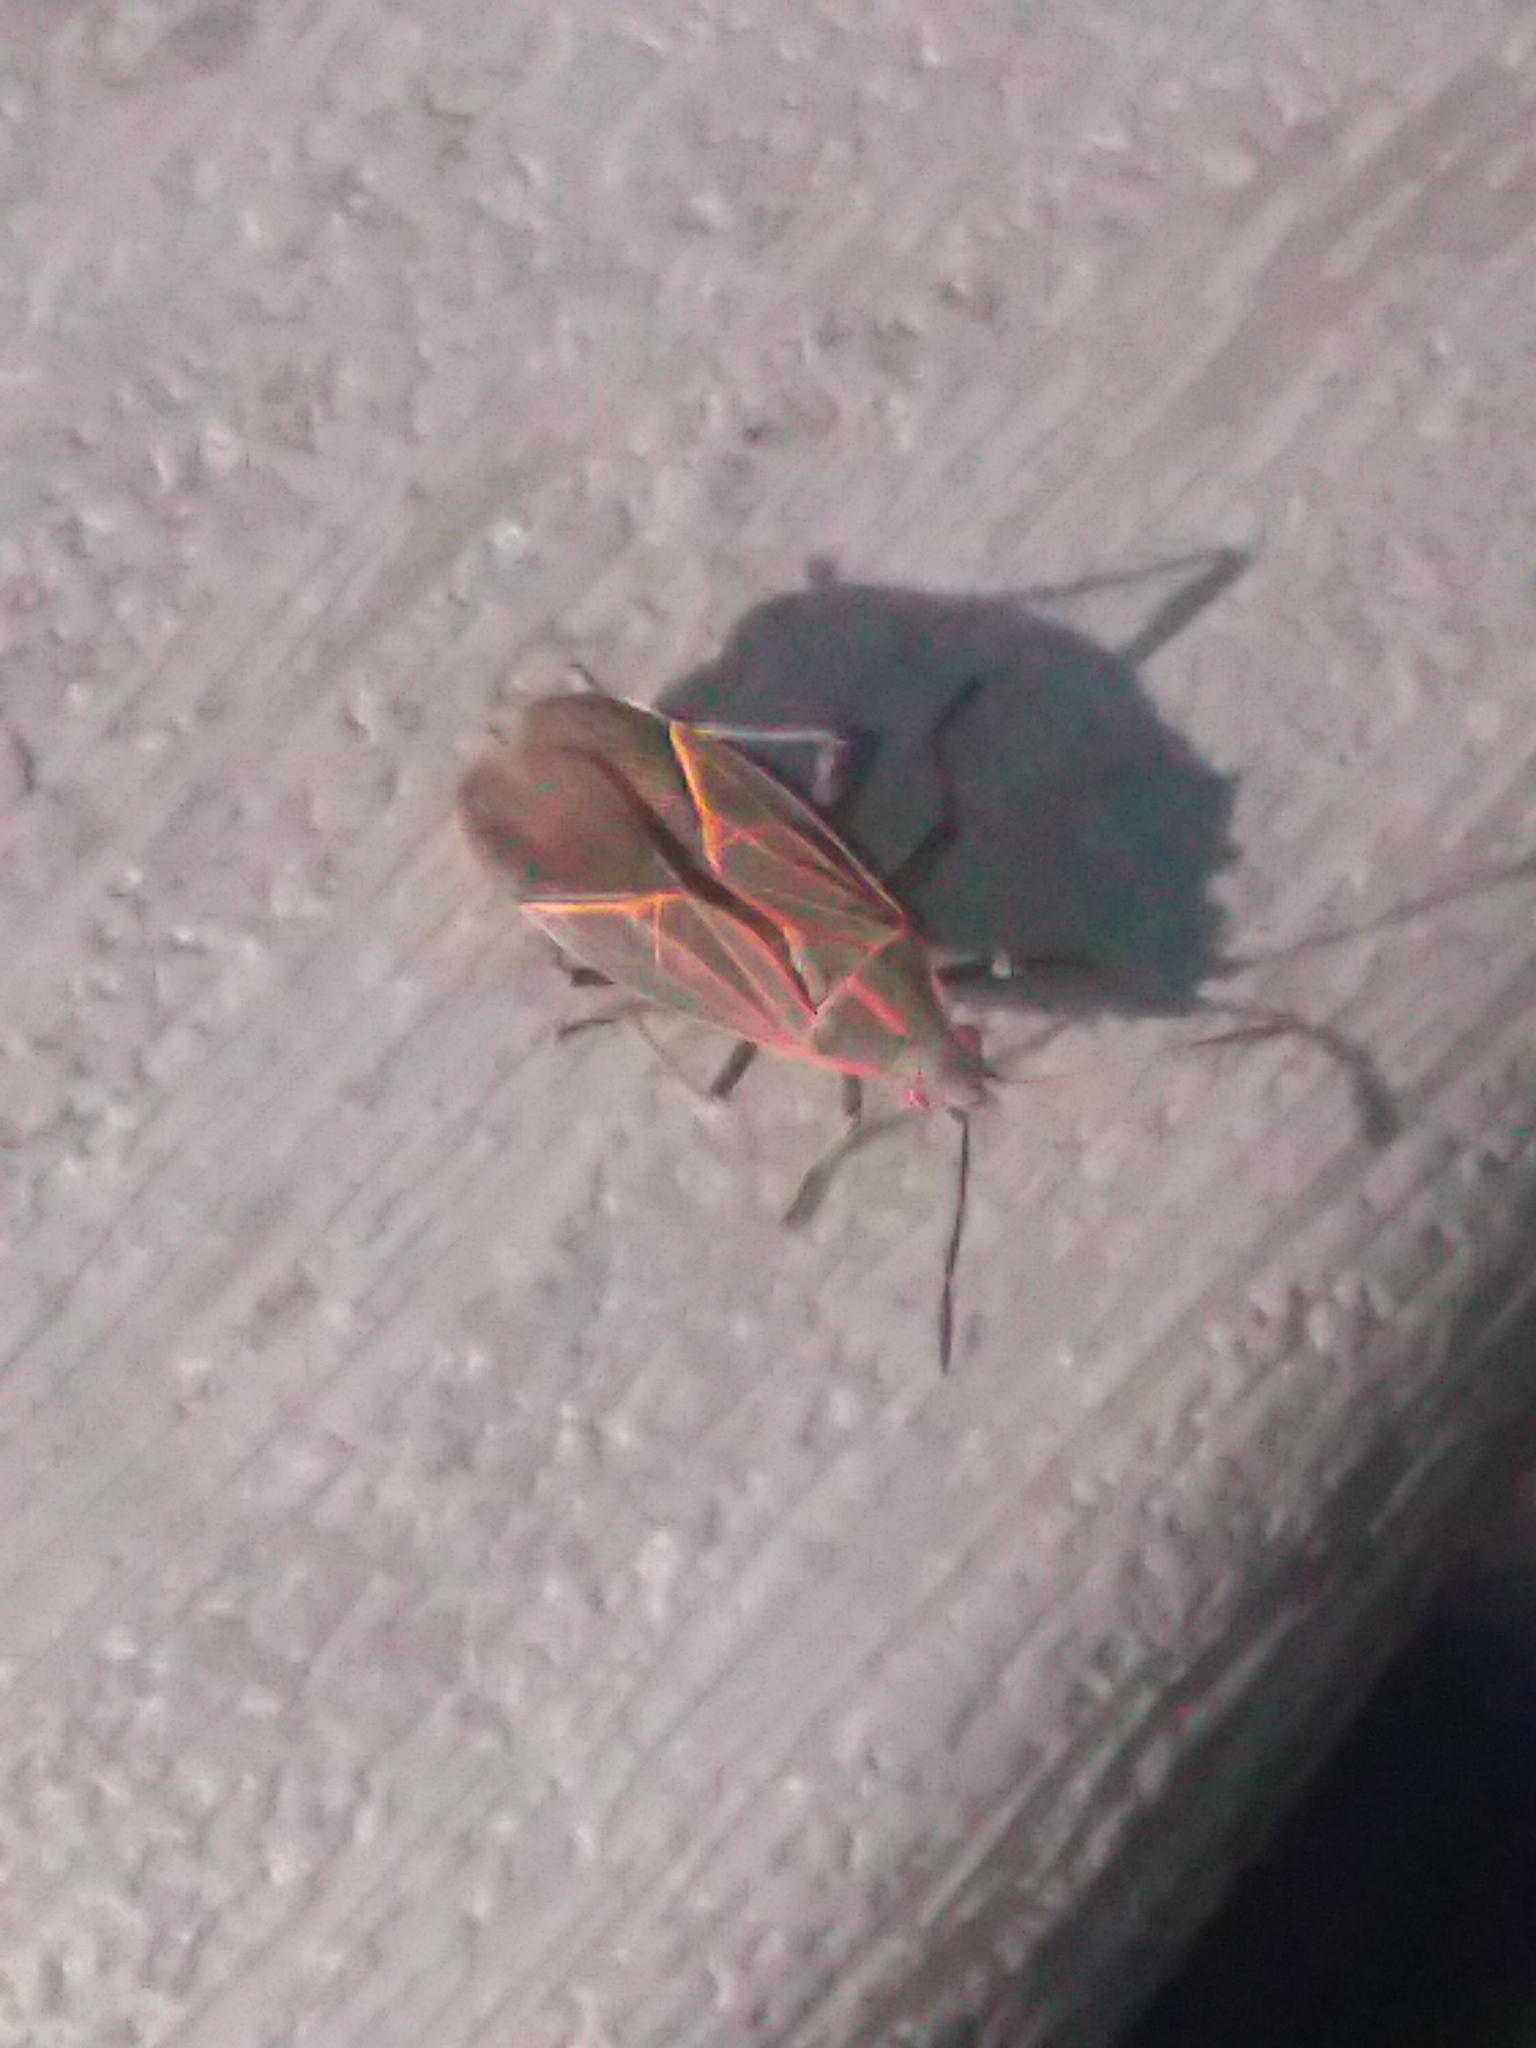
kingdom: Animalia
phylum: Arthropoda
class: Insecta
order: Hemiptera
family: Rhopalidae
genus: Boisea
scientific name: Boisea rubrolineata
